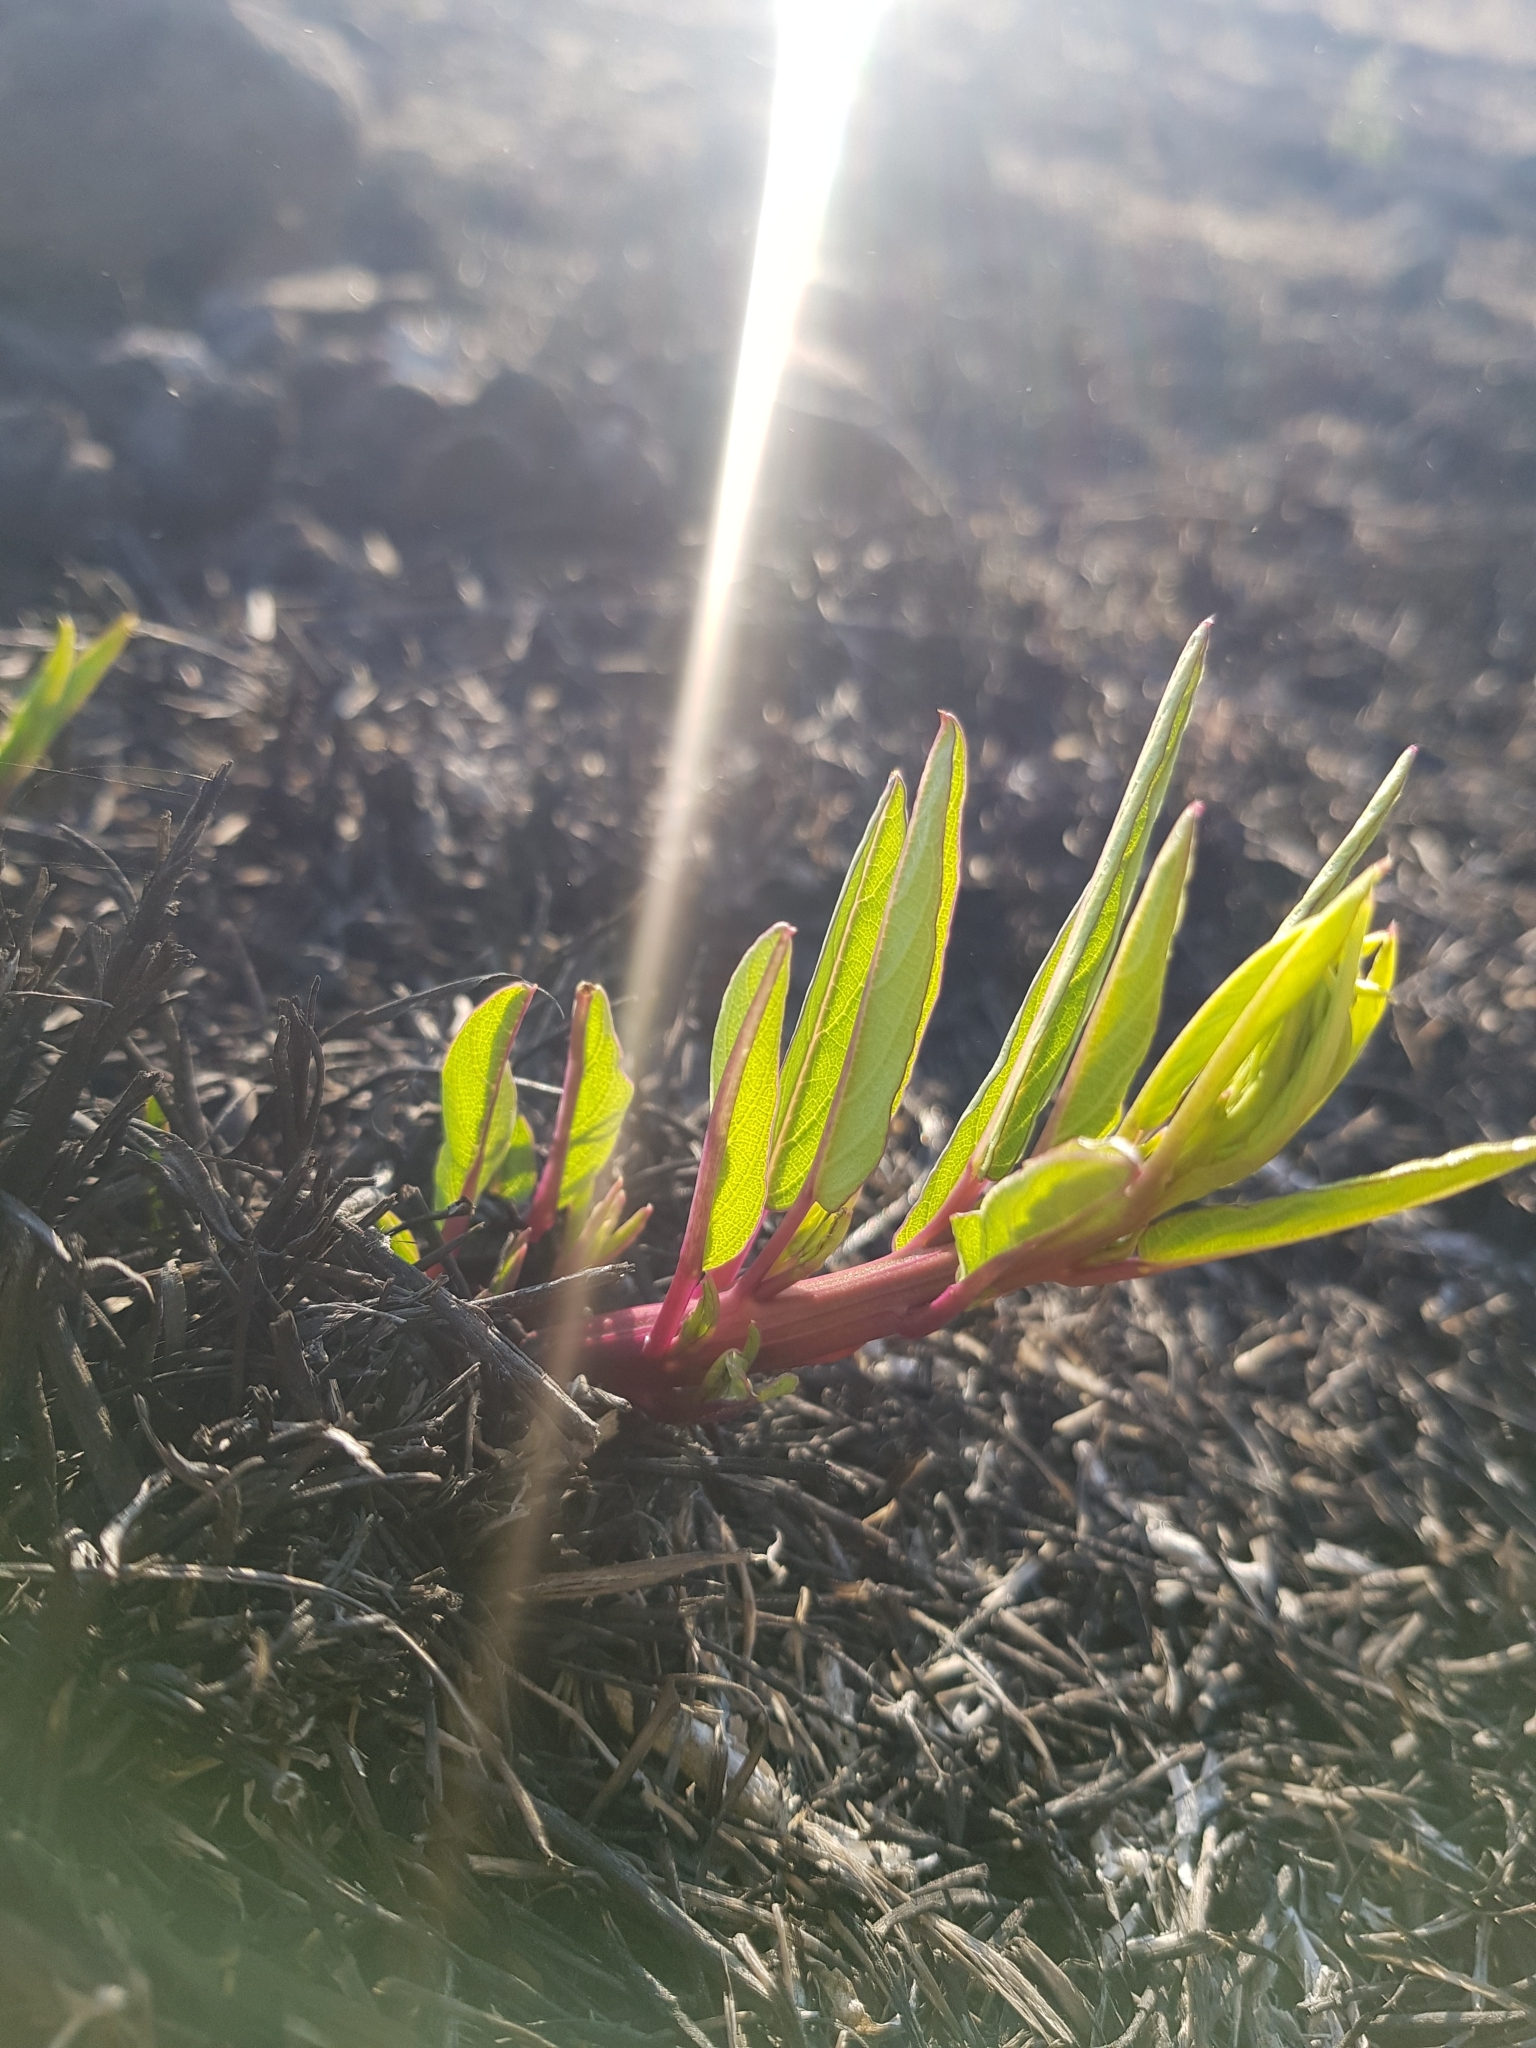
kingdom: Plantae
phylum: Tracheophyta
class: Magnoliopsida
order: Solanales
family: Convolvulaceae
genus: Ipomoea
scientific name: Ipomoea longifolia
